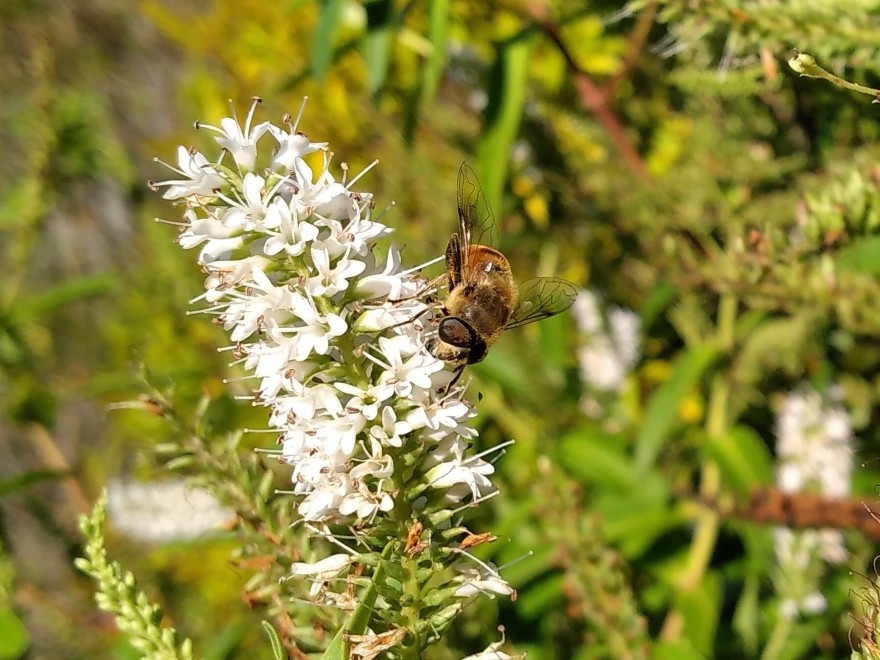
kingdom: Animalia
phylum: Arthropoda
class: Insecta
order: Diptera
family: Syrphidae
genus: Eristalis
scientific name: Eristalis tenax
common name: Drone fly
